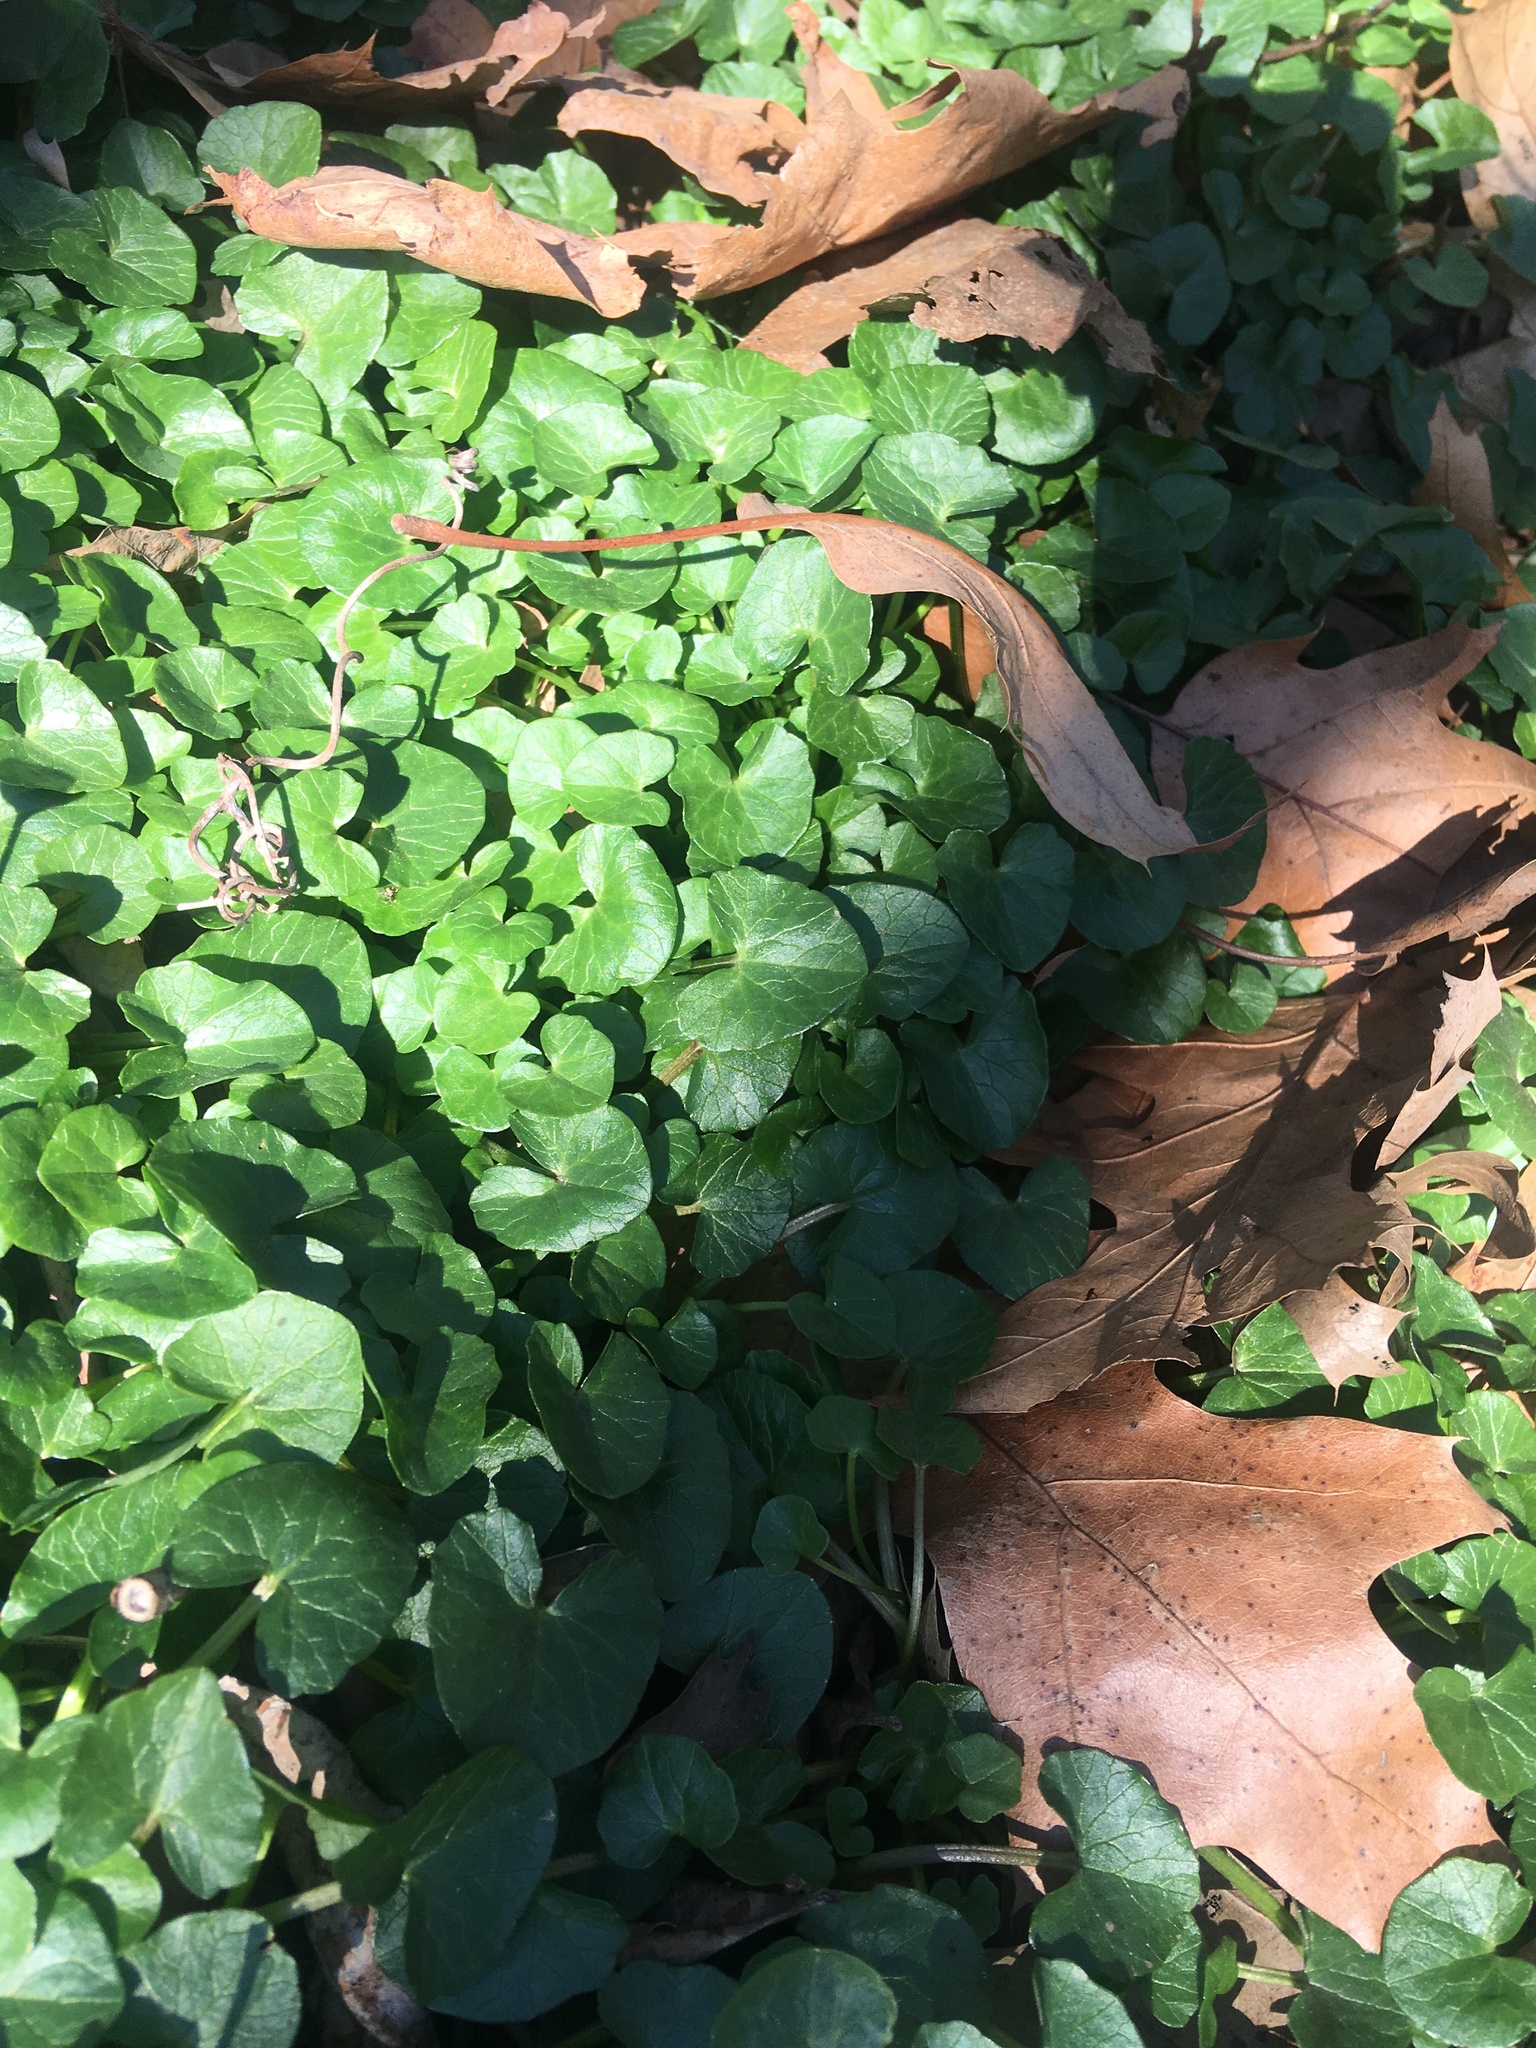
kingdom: Plantae
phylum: Tracheophyta
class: Magnoliopsida
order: Ranunculales
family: Ranunculaceae
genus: Ficaria
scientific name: Ficaria verna
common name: Lesser celandine
